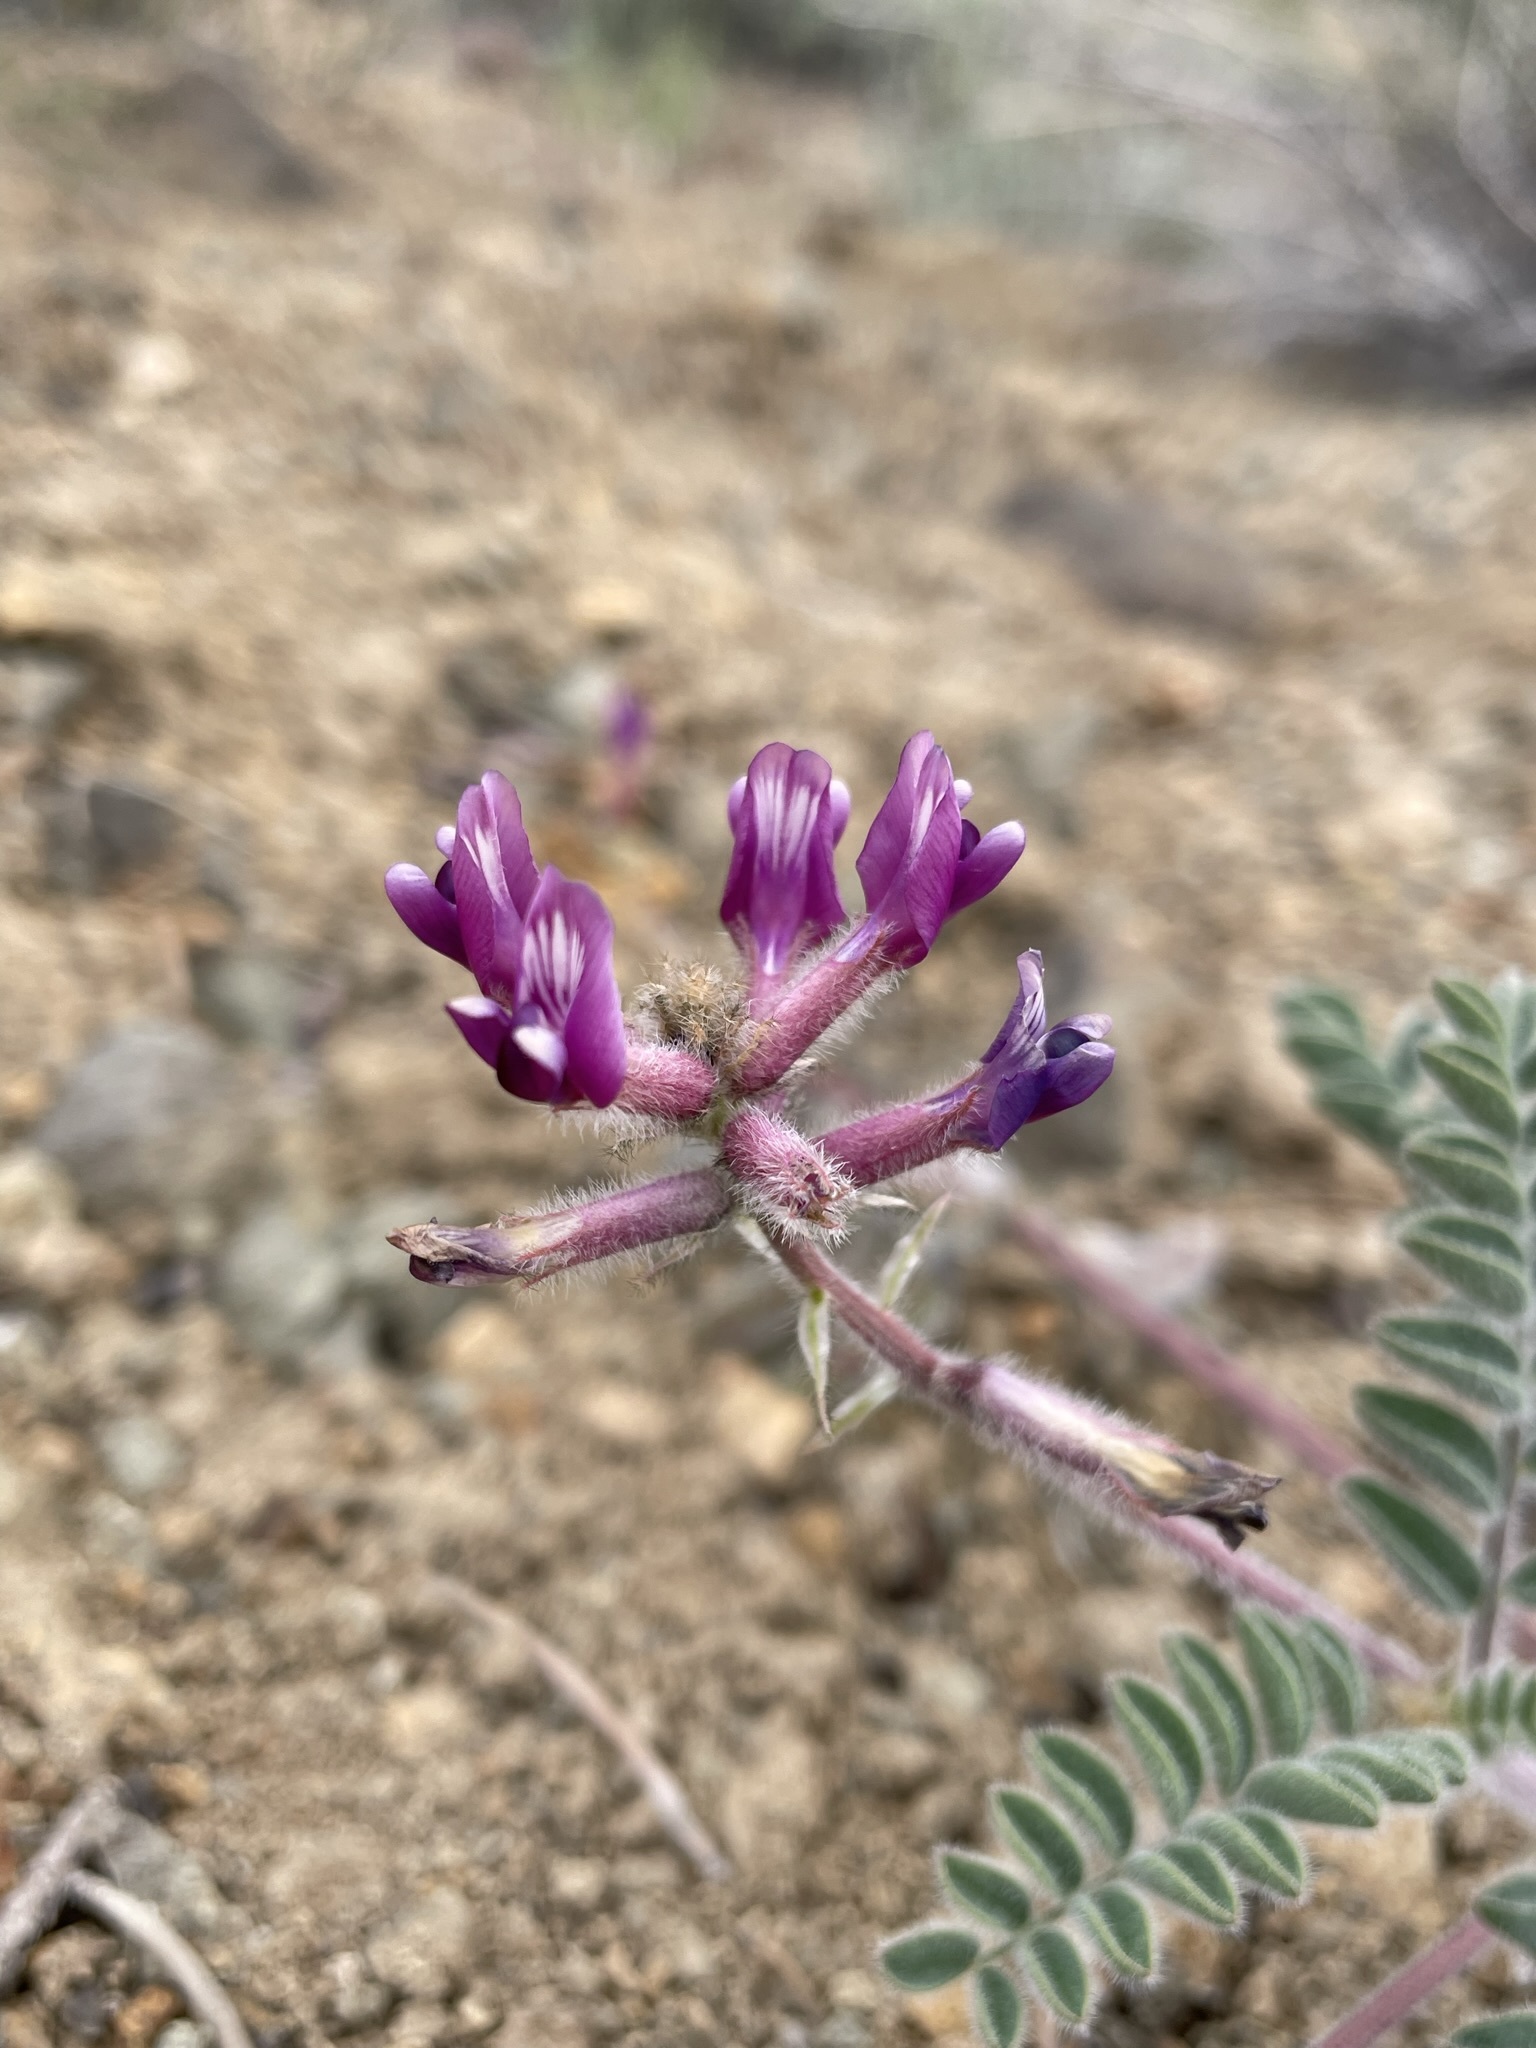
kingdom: Plantae
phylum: Tracheophyta
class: Magnoliopsida
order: Fabales
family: Fabaceae
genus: Astragalus
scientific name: Astragalus malacus
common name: Shaggy milk-vetch
